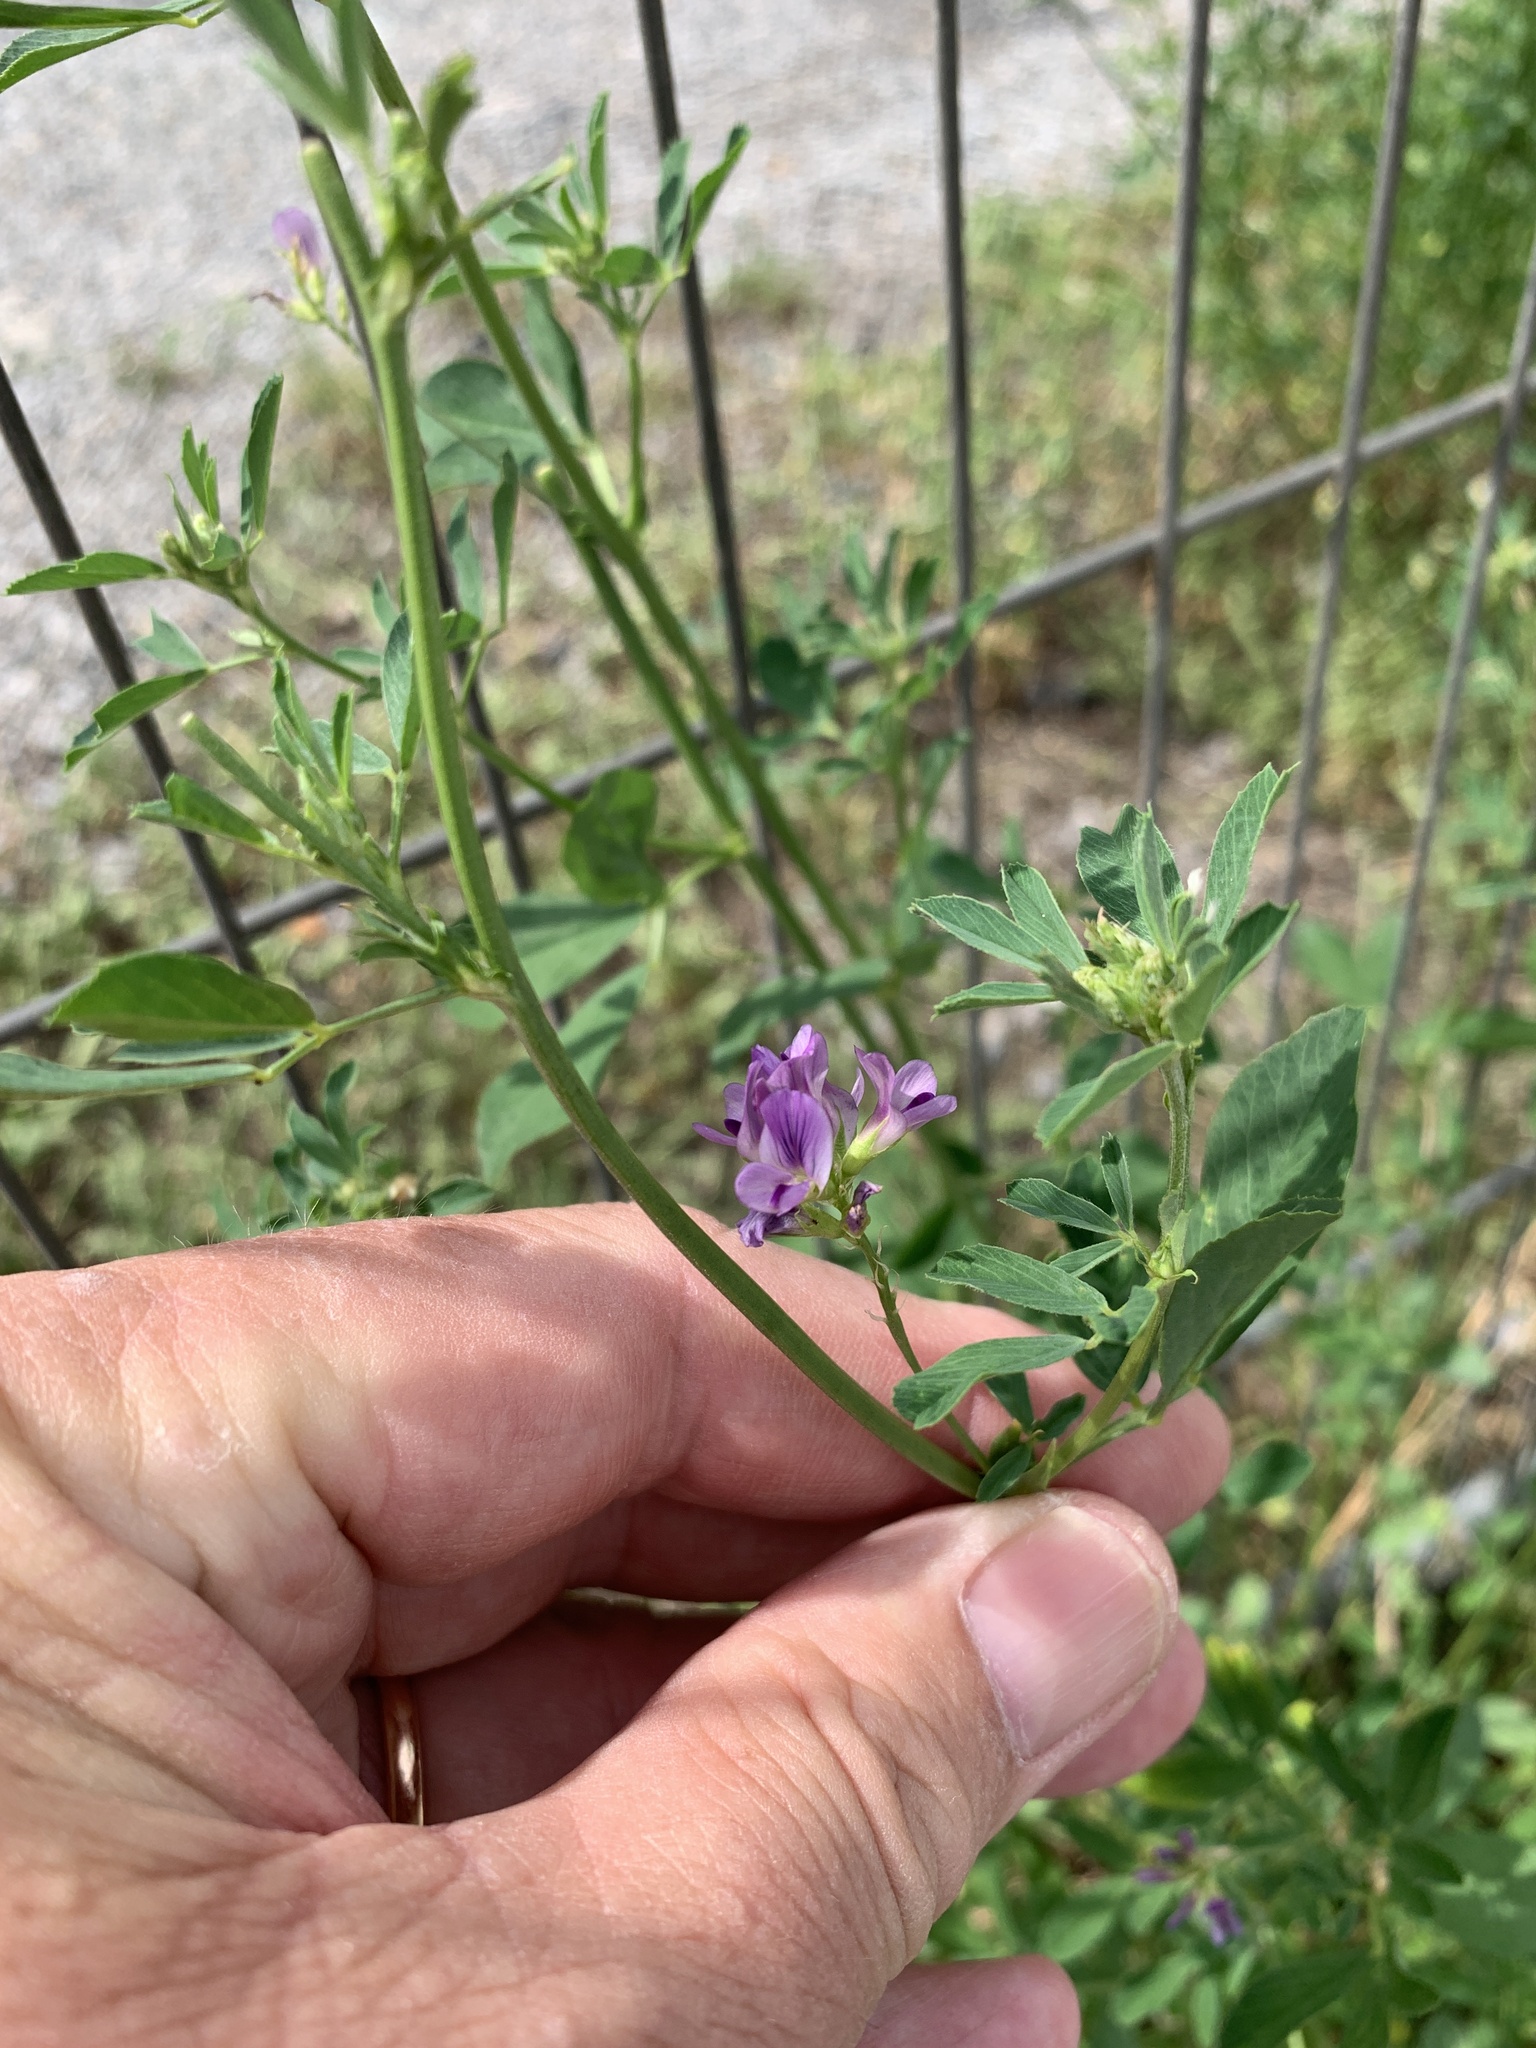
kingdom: Plantae
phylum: Tracheophyta
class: Magnoliopsida
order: Fabales
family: Fabaceae
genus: Medicago
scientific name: Medicago sativa
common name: Alfalfa
